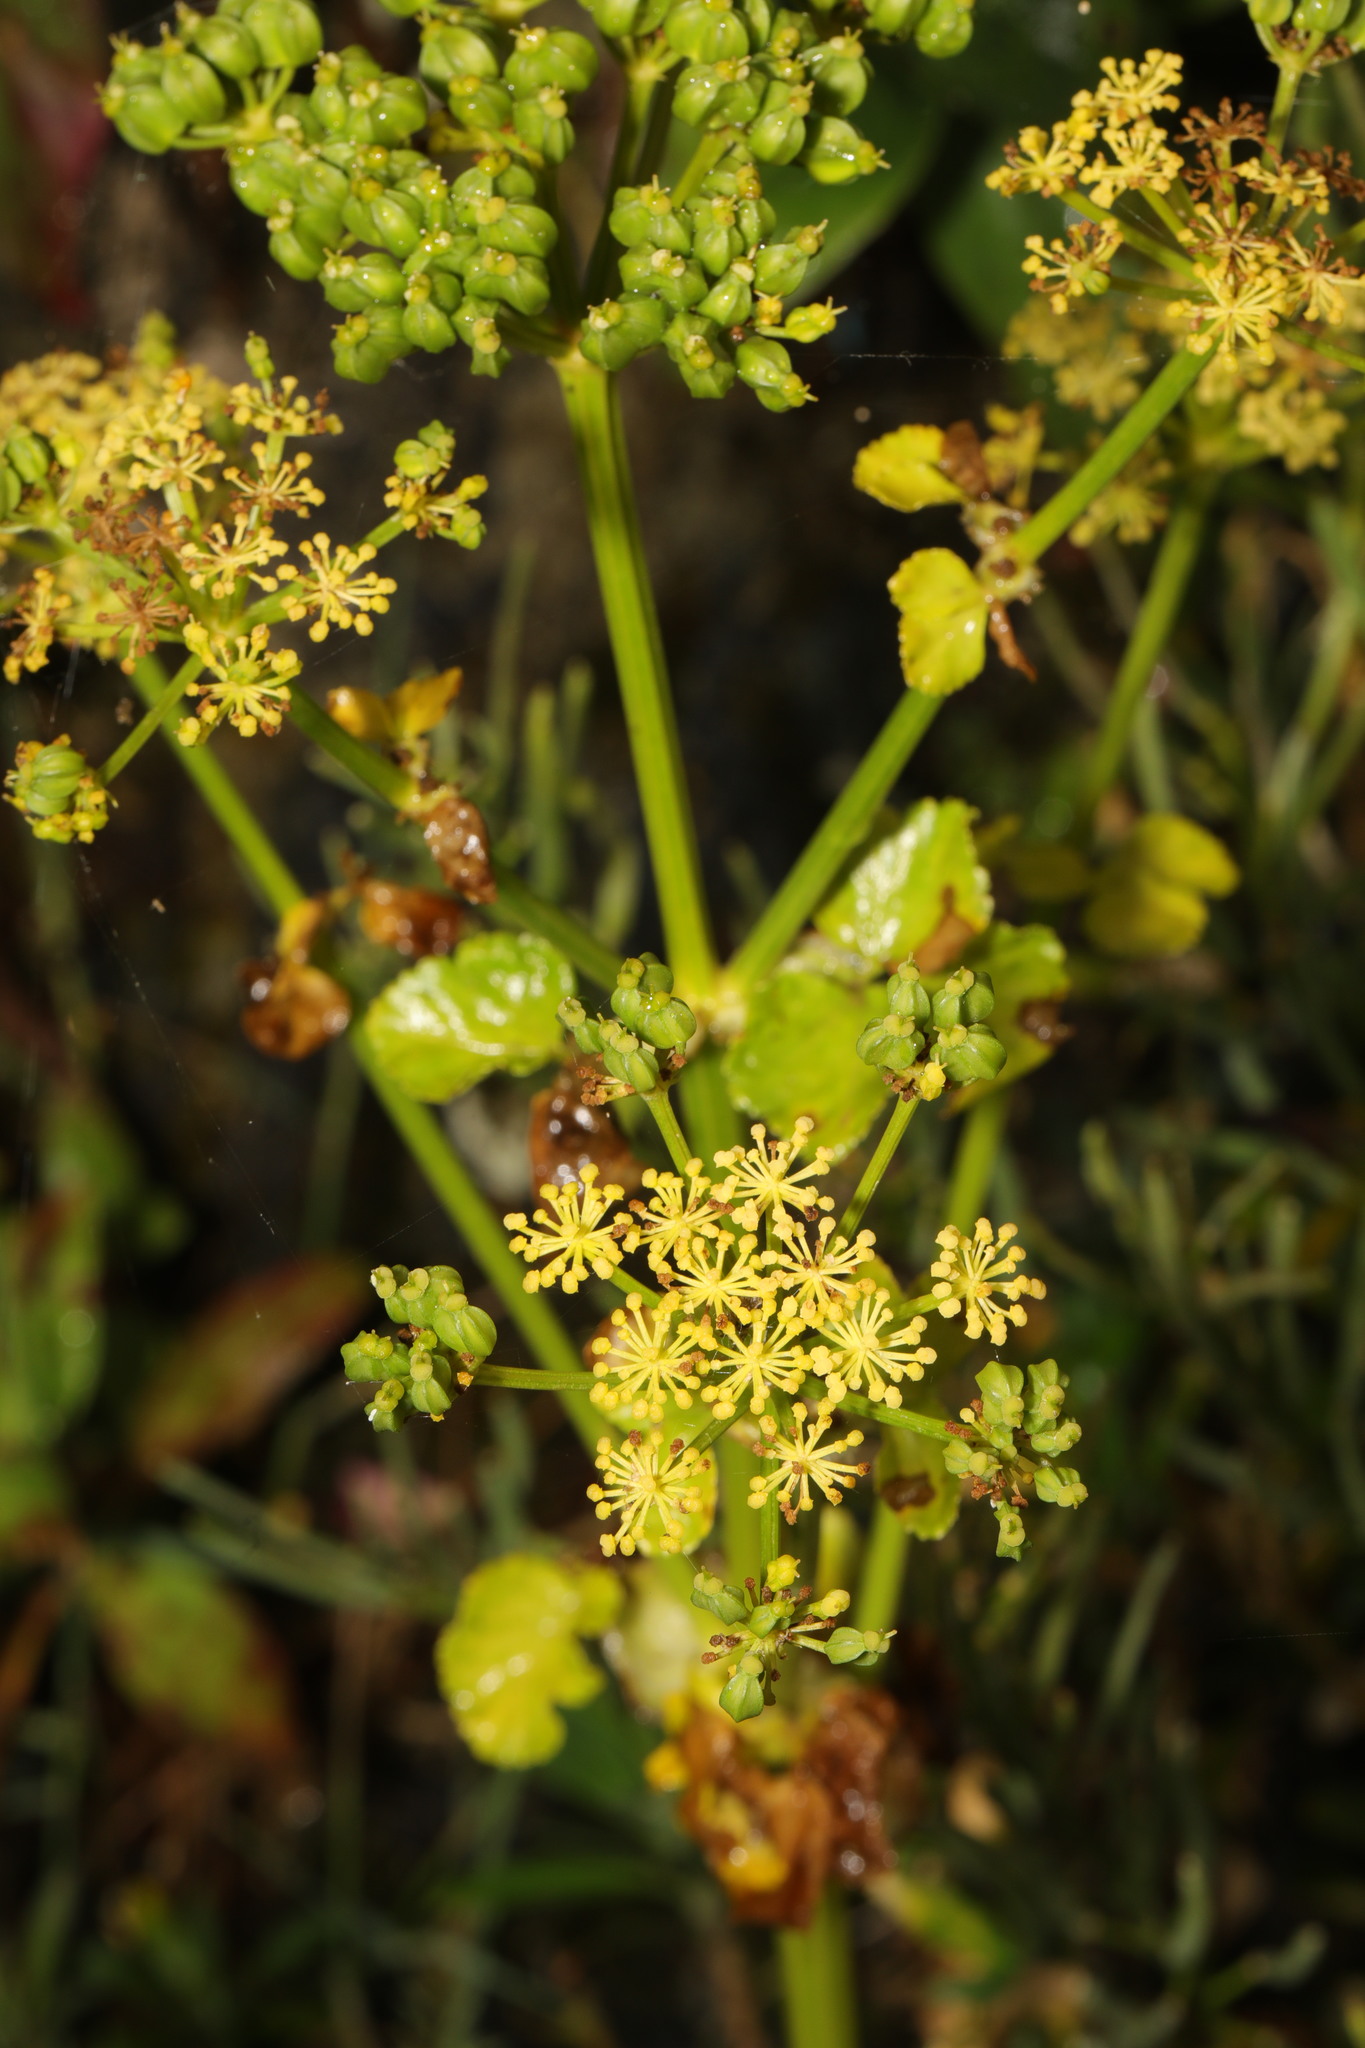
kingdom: Plantae
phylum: Tracheophyta
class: Magnoliopsida
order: Apiales
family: Apiaceae
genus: Smyrnium
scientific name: Smyrnium olusatrum
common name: Alexanders
